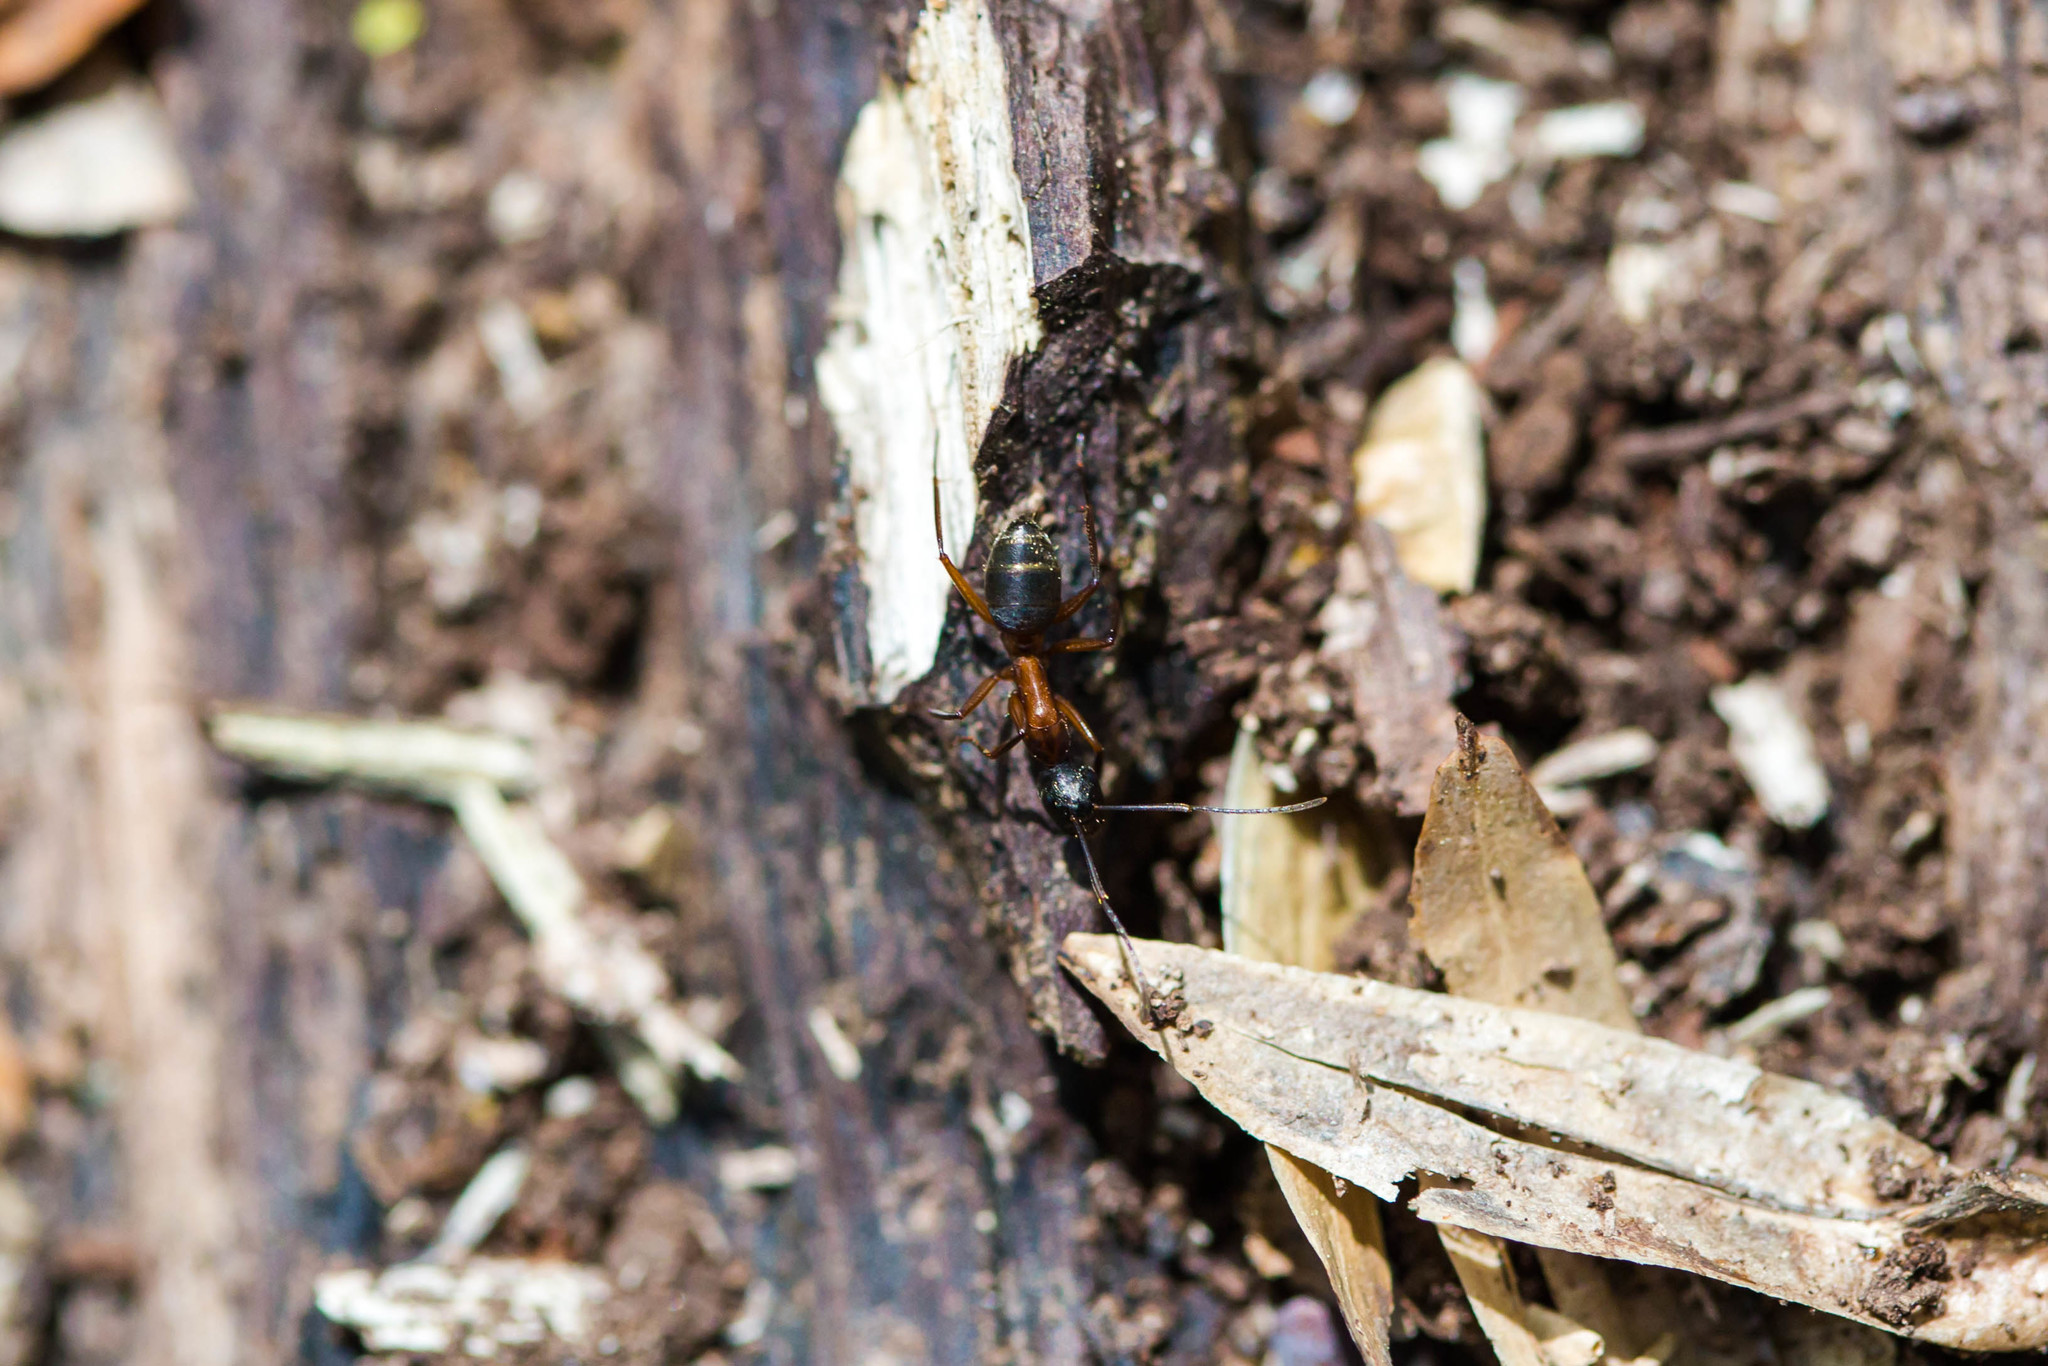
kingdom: Animalia
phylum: Arthropoda
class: Insecta
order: Hymenoptera
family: Formicidae
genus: Camponotus
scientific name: Camponotus chromaiodes
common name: Red carpenter ant
